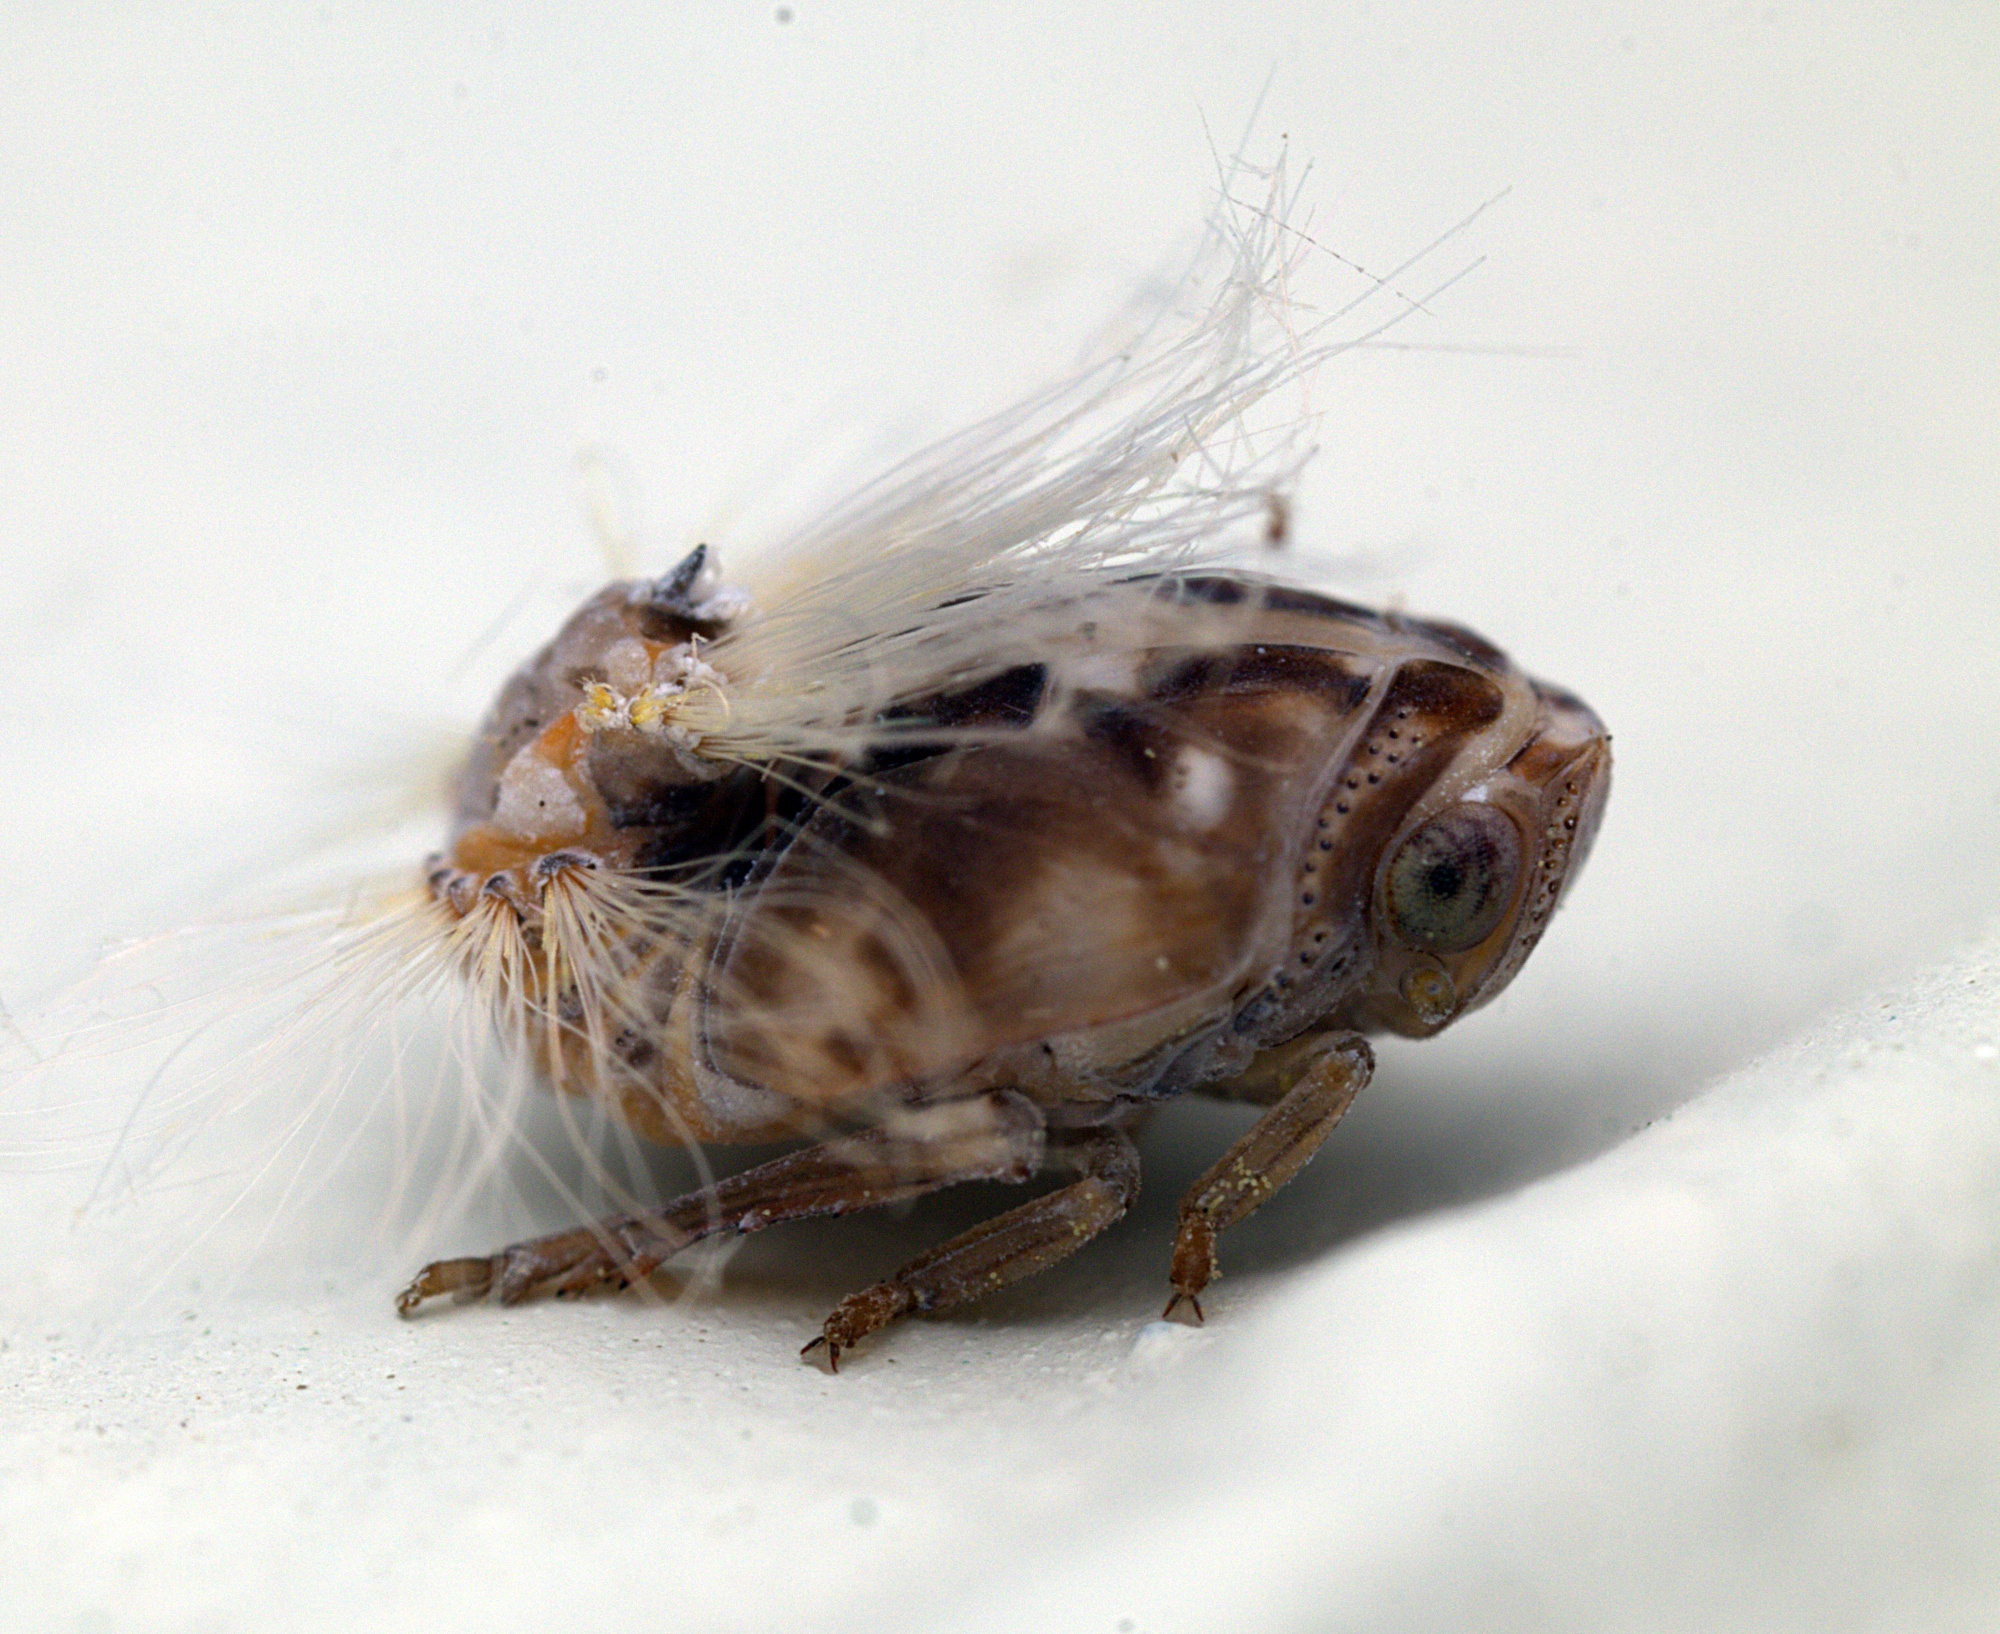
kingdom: Animalia
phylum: Arthropoda
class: Insecta
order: Hemiptera
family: Ricaniidae
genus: Scolypopa
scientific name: Scolypopa australis
